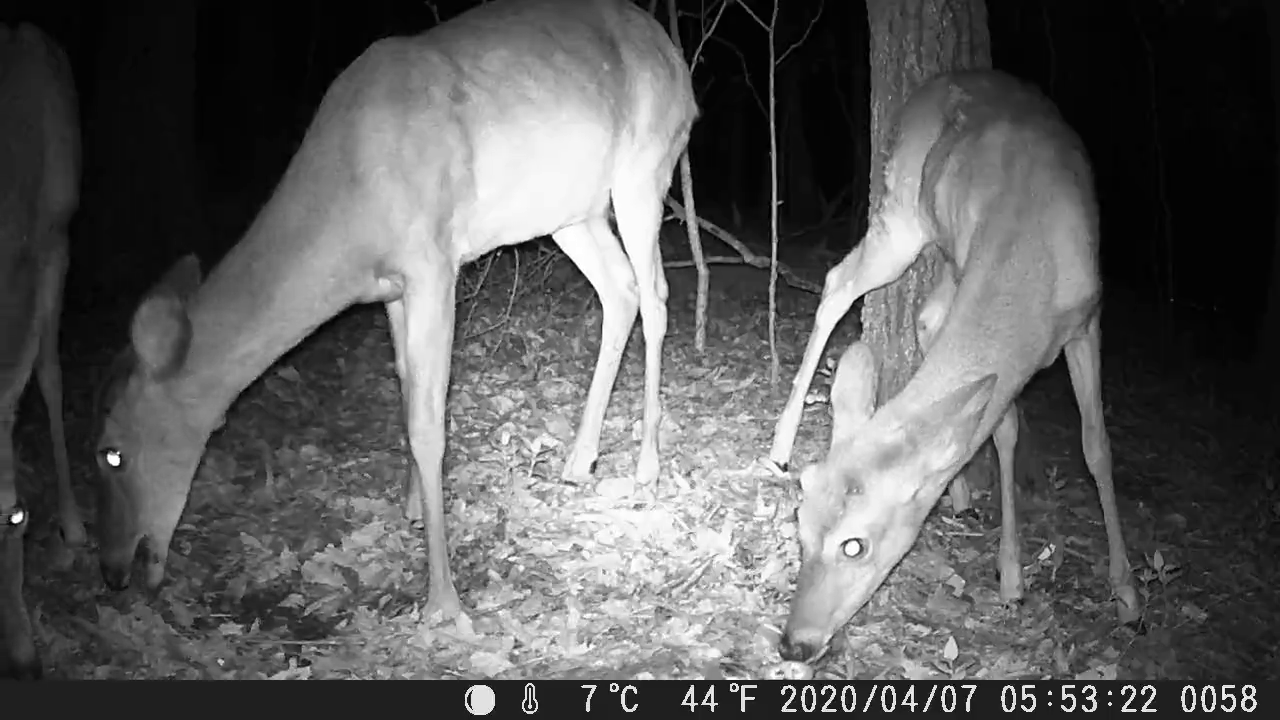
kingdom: Animalia
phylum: Chordata
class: Mammalia
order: Artiodactyla
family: Cervidae
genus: Odocoileus
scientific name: Odocoileus virginianus
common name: White-tailed deer
